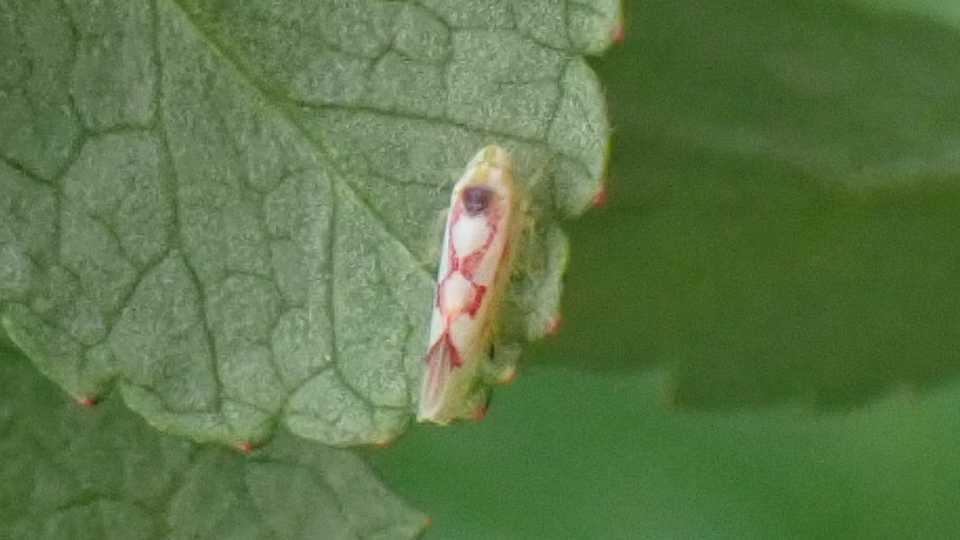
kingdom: Animalia
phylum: Arthropoda
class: Insecta
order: Hemiptera
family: Cicadellidae
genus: Zygina
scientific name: Zygina flammigera
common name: Leafhopper
